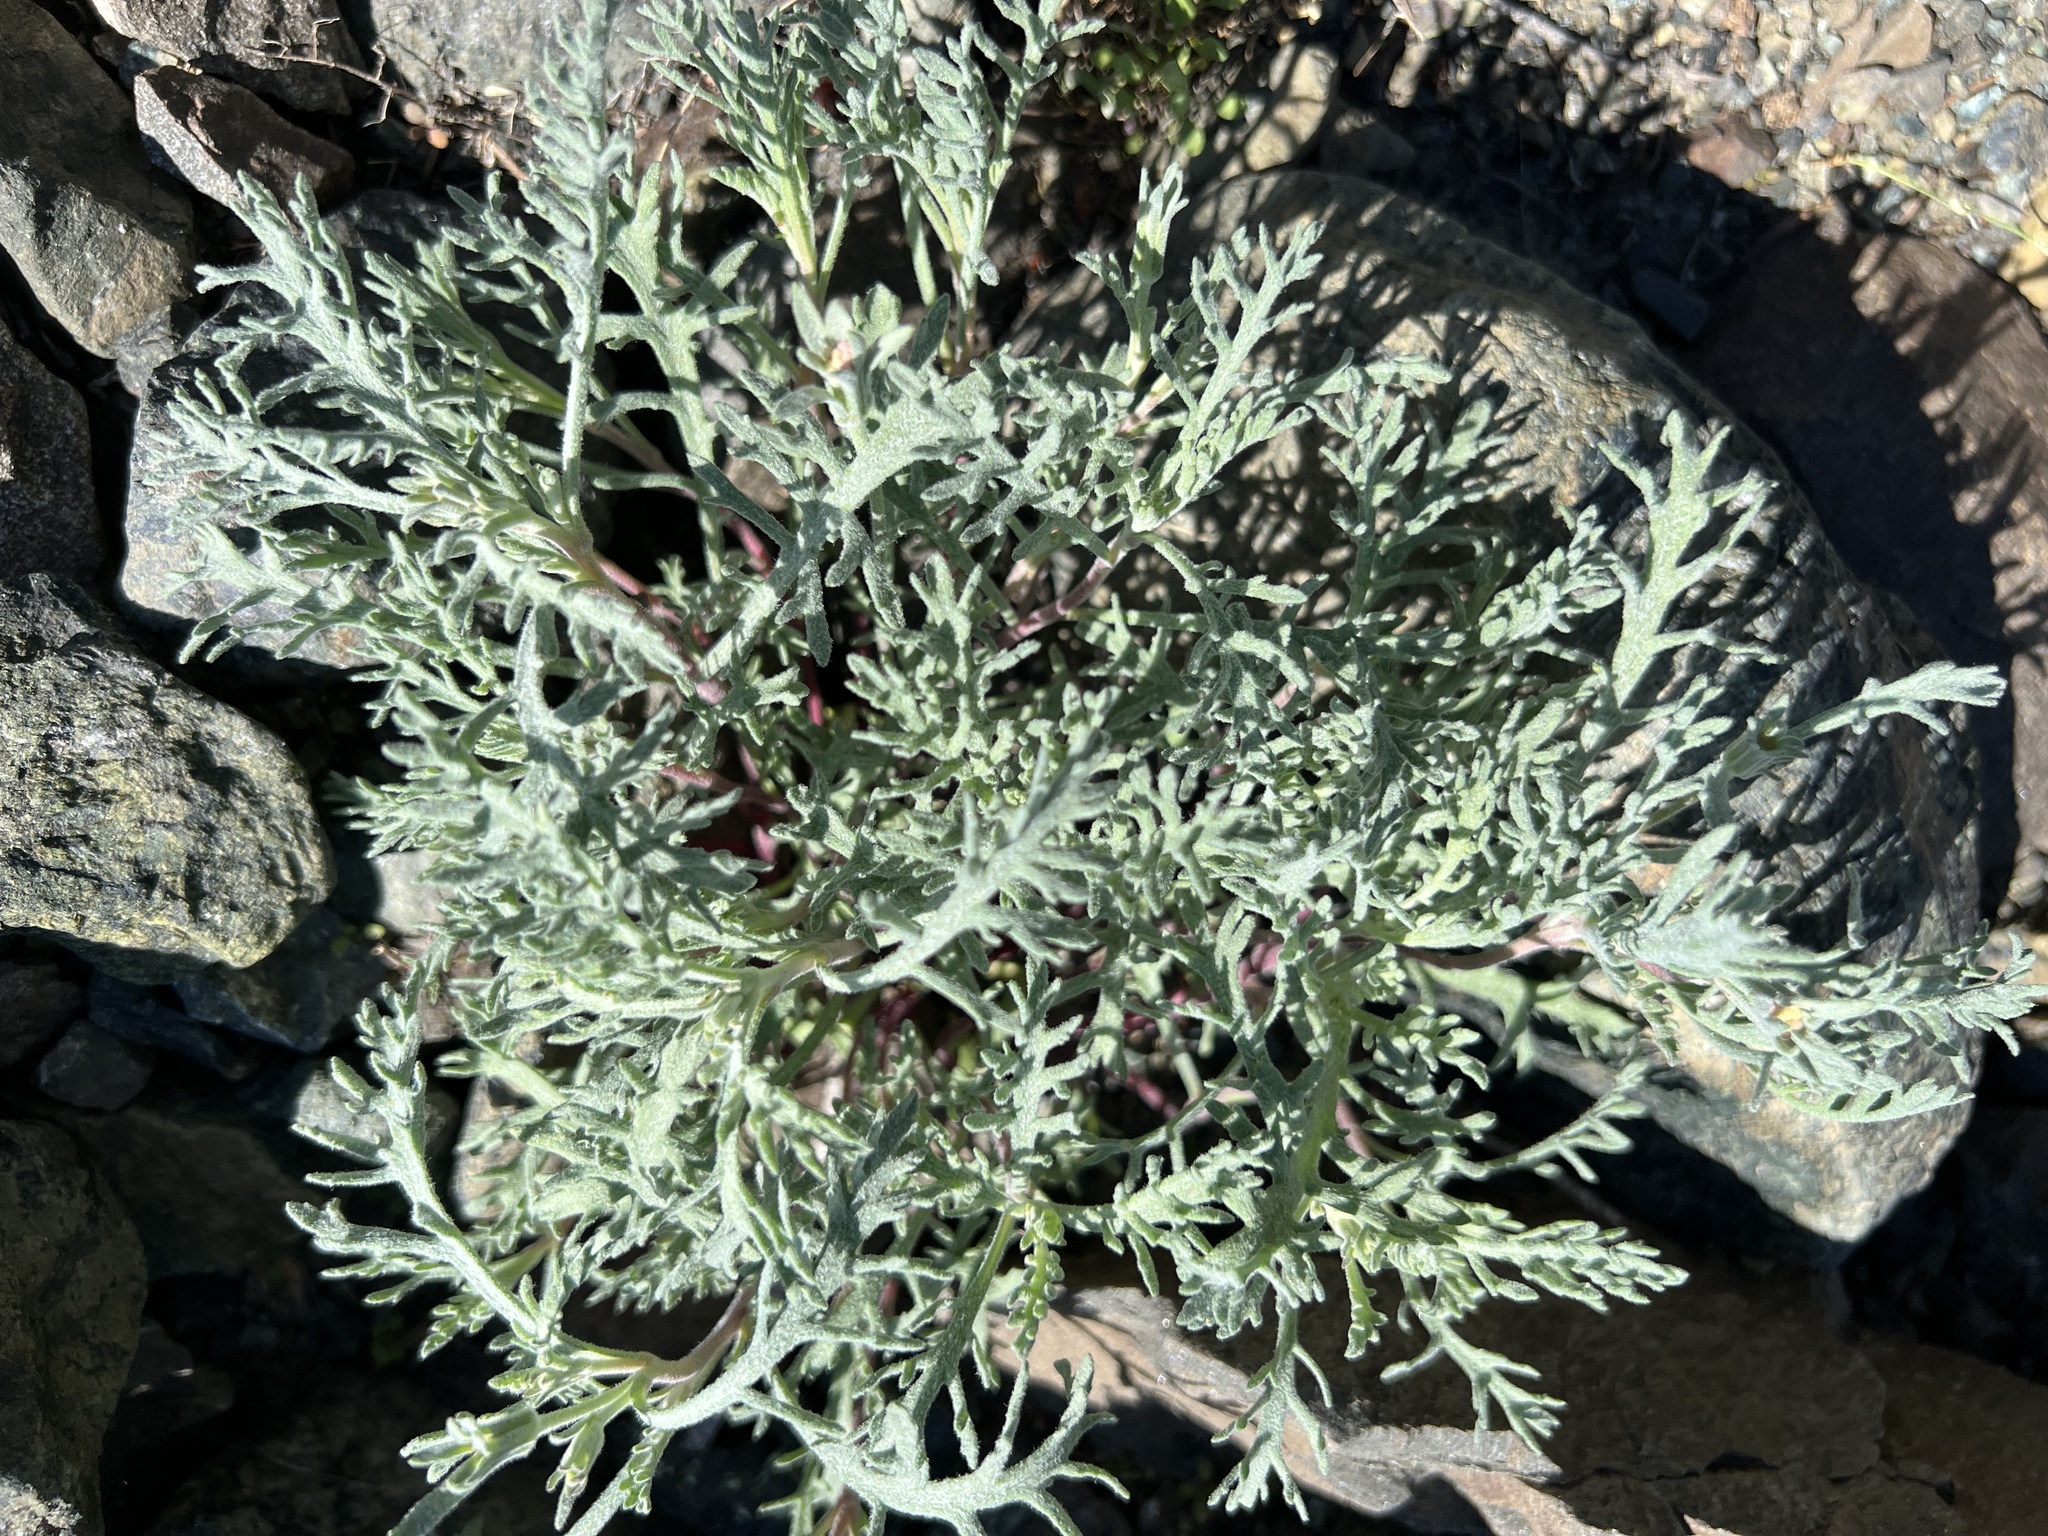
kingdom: Plantae
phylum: Tracheophyta
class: Magnoliopsida
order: Asterales
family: Asteraceae
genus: Chaenactis
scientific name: Chaenactis thompsonii
